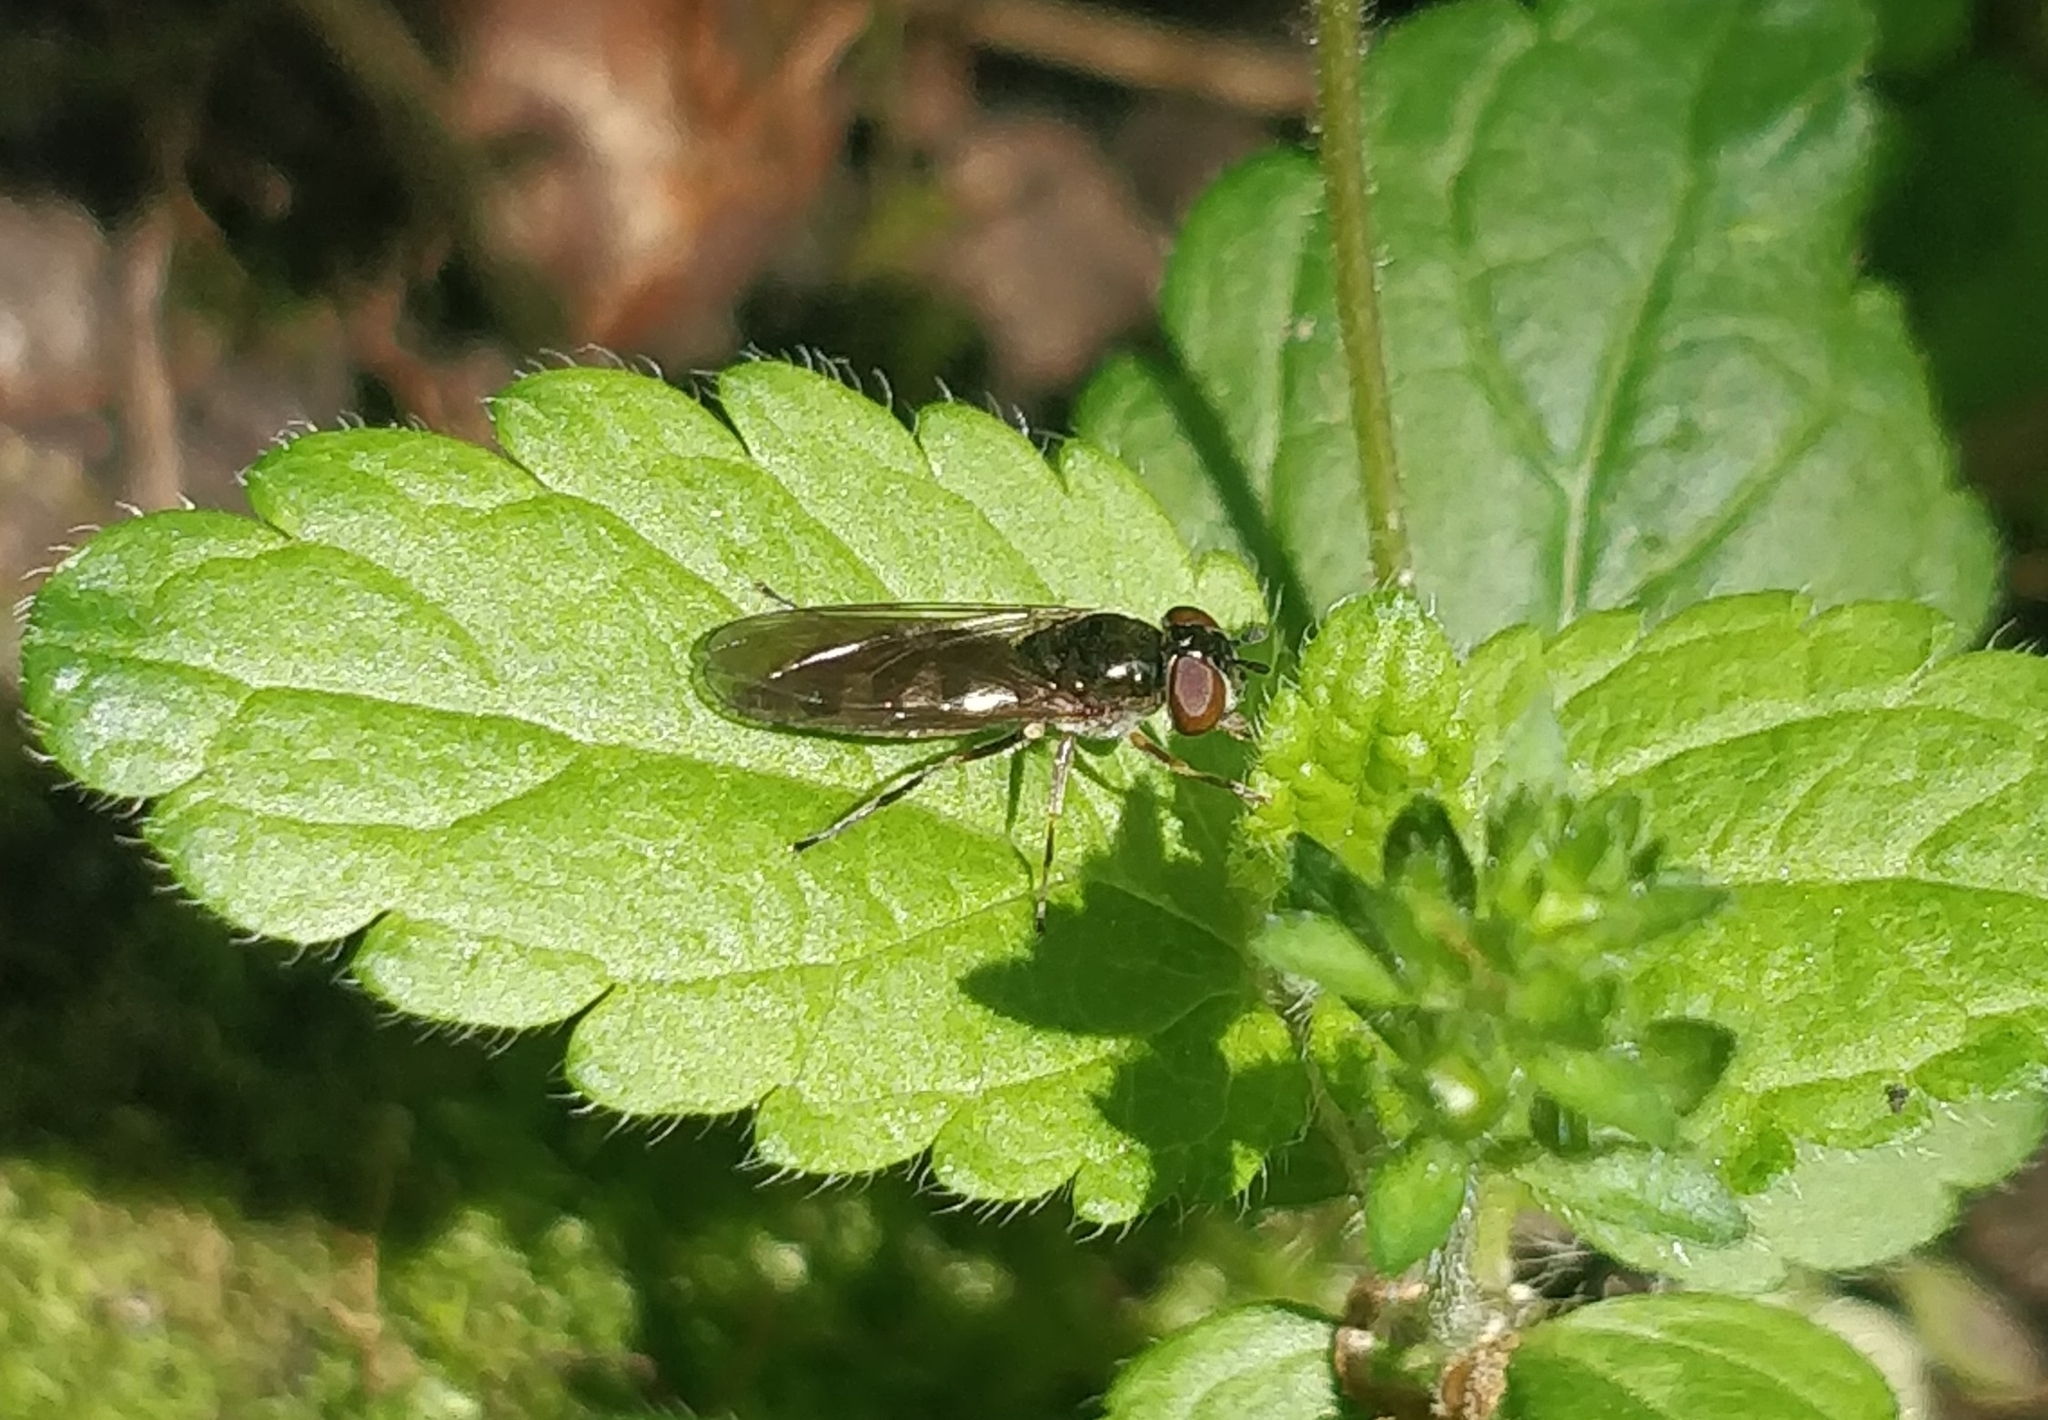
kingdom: Animalia
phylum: Arthropoda
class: Insecta
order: Diptera
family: Syrphidae
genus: Platycheirus
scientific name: Platycheirus albimanus
